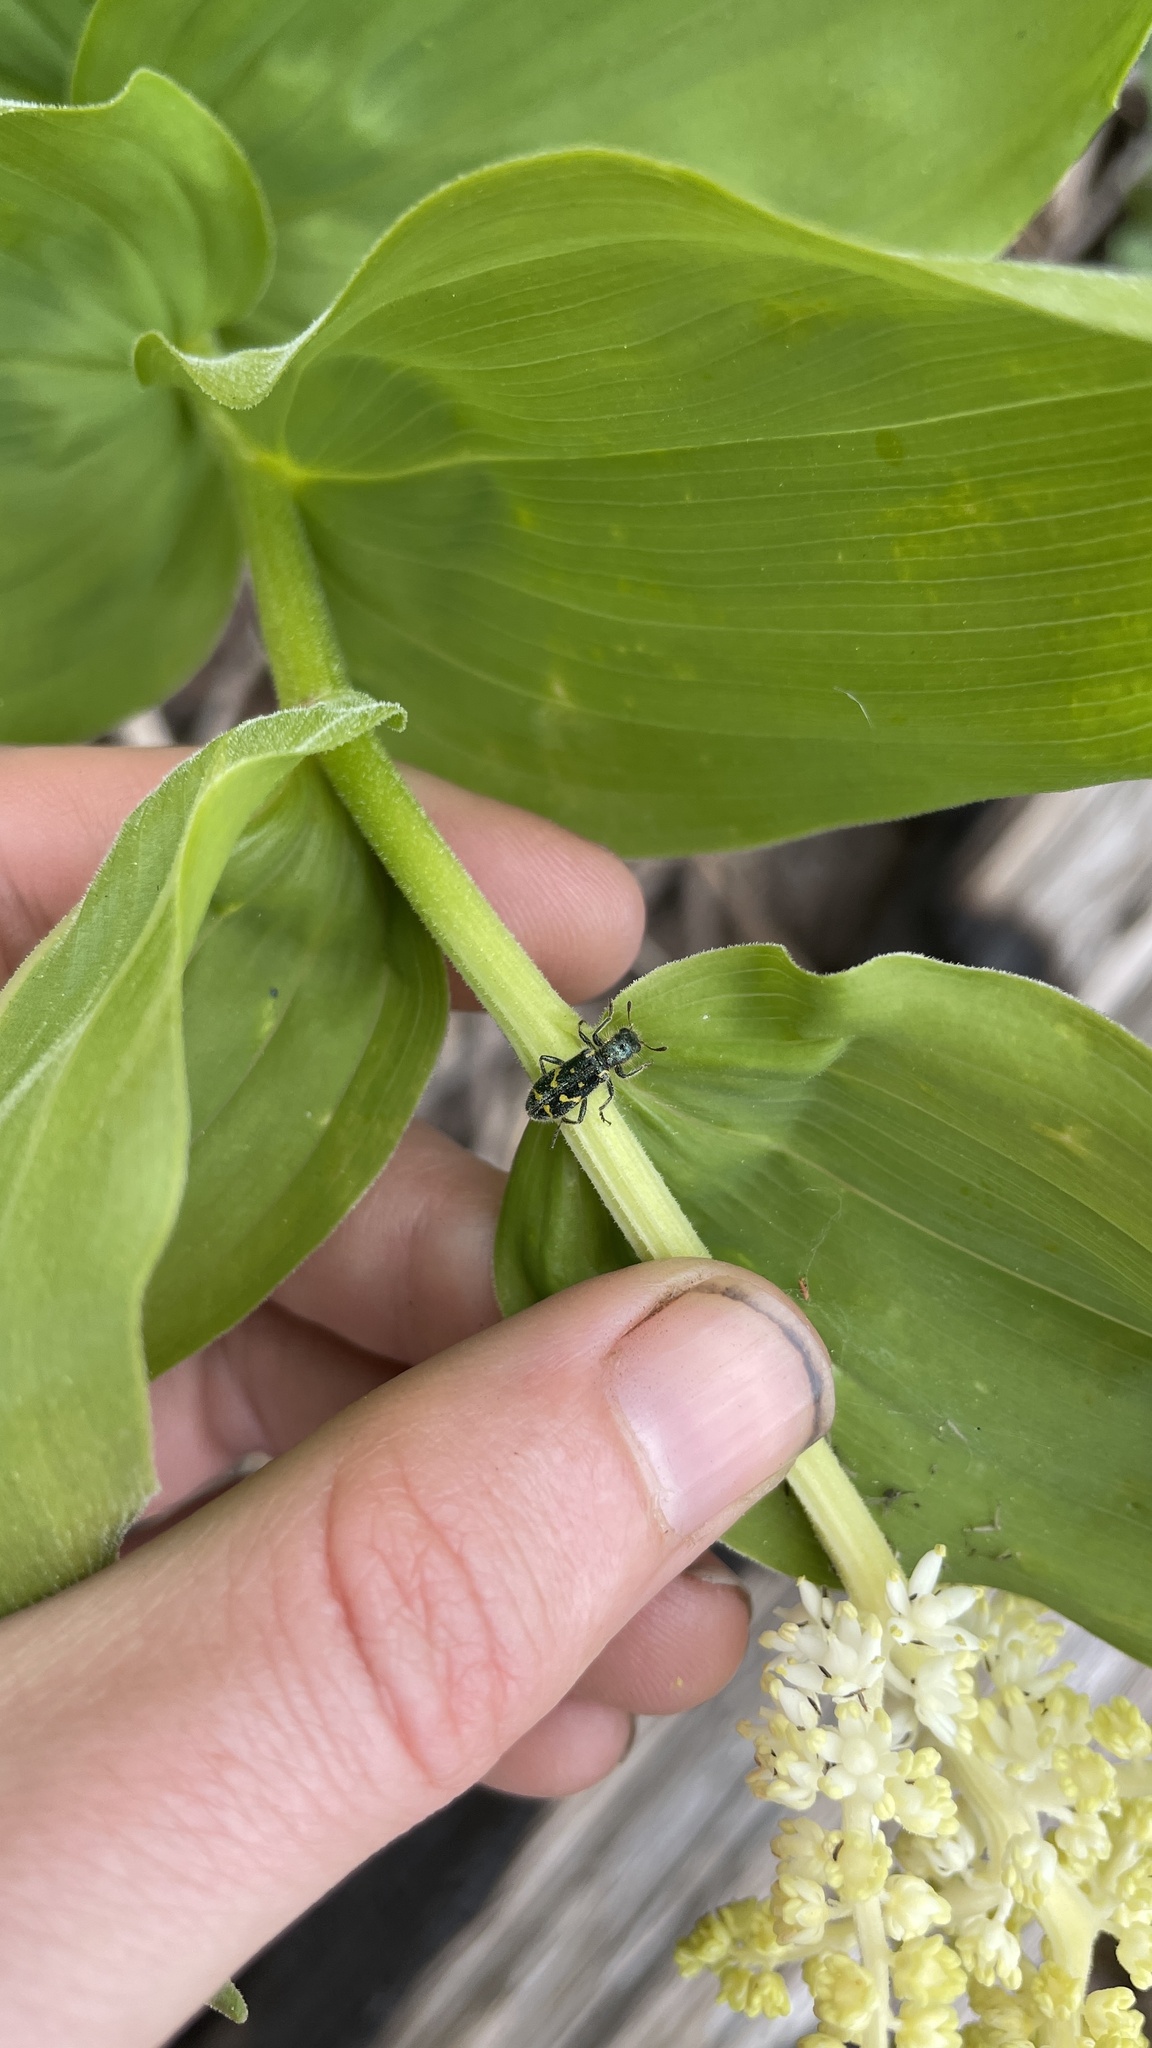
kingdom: Animalia
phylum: Arthropoda
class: Insecta
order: Coleoptera
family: Cleridae
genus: Trichodes
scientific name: Trichodes ornatus
